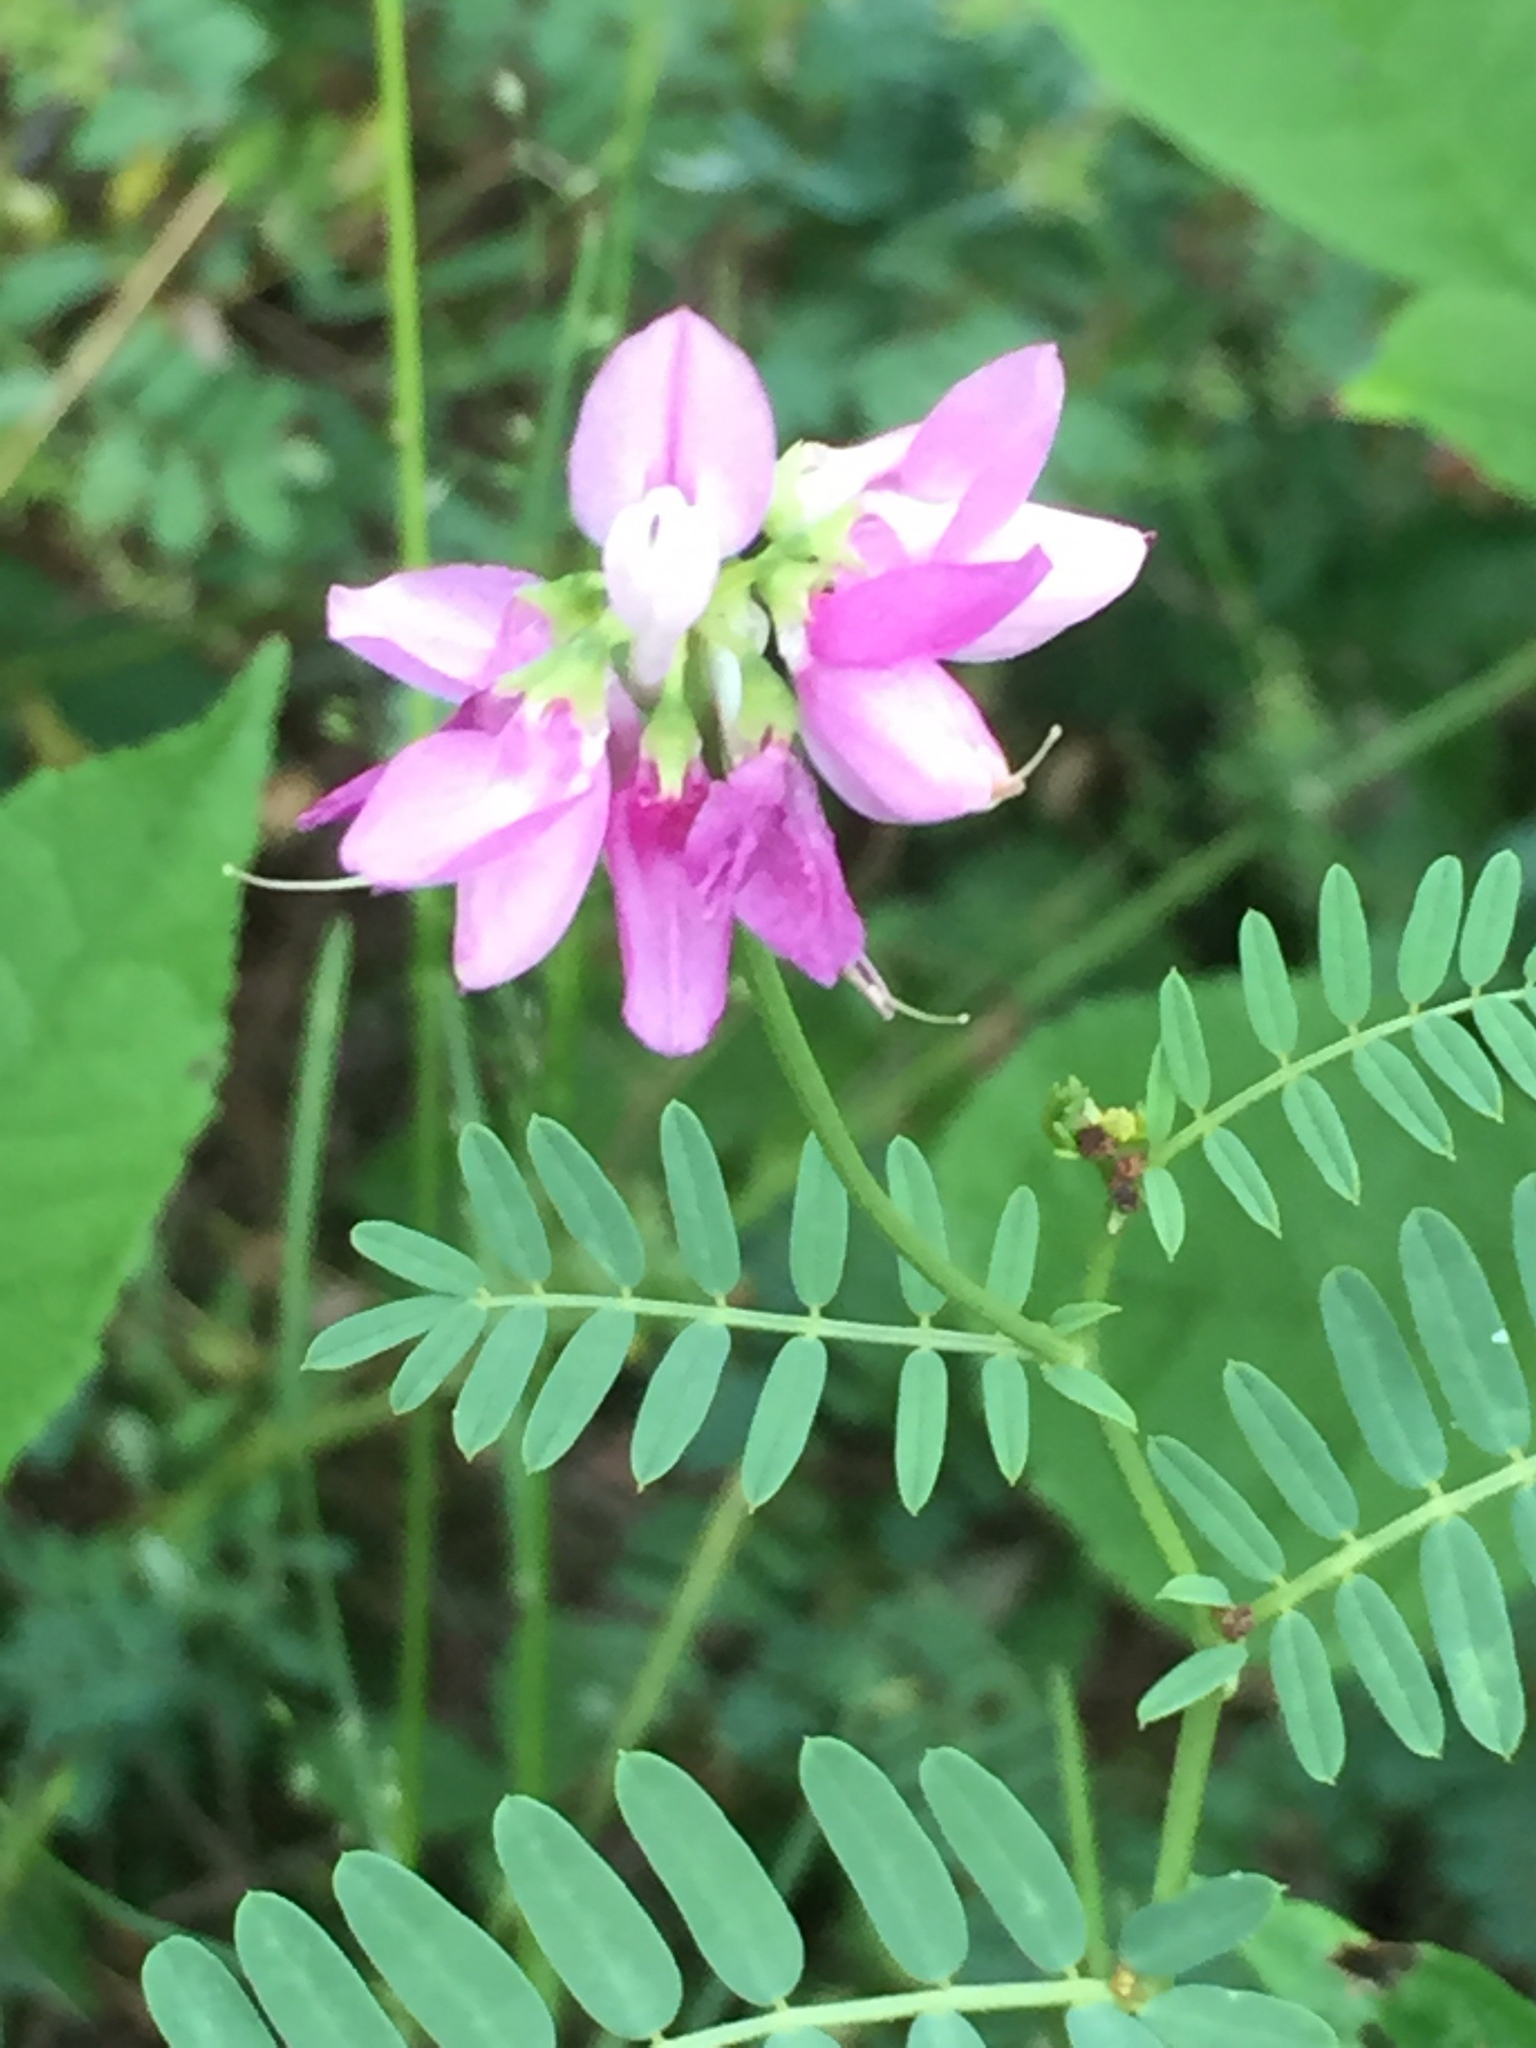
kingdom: Plantae
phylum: Tracheophyta
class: Magnoliopsida
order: Fabales
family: Fabaceae
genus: Coronilla
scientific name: Coronilla varia
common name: Crownvetch
